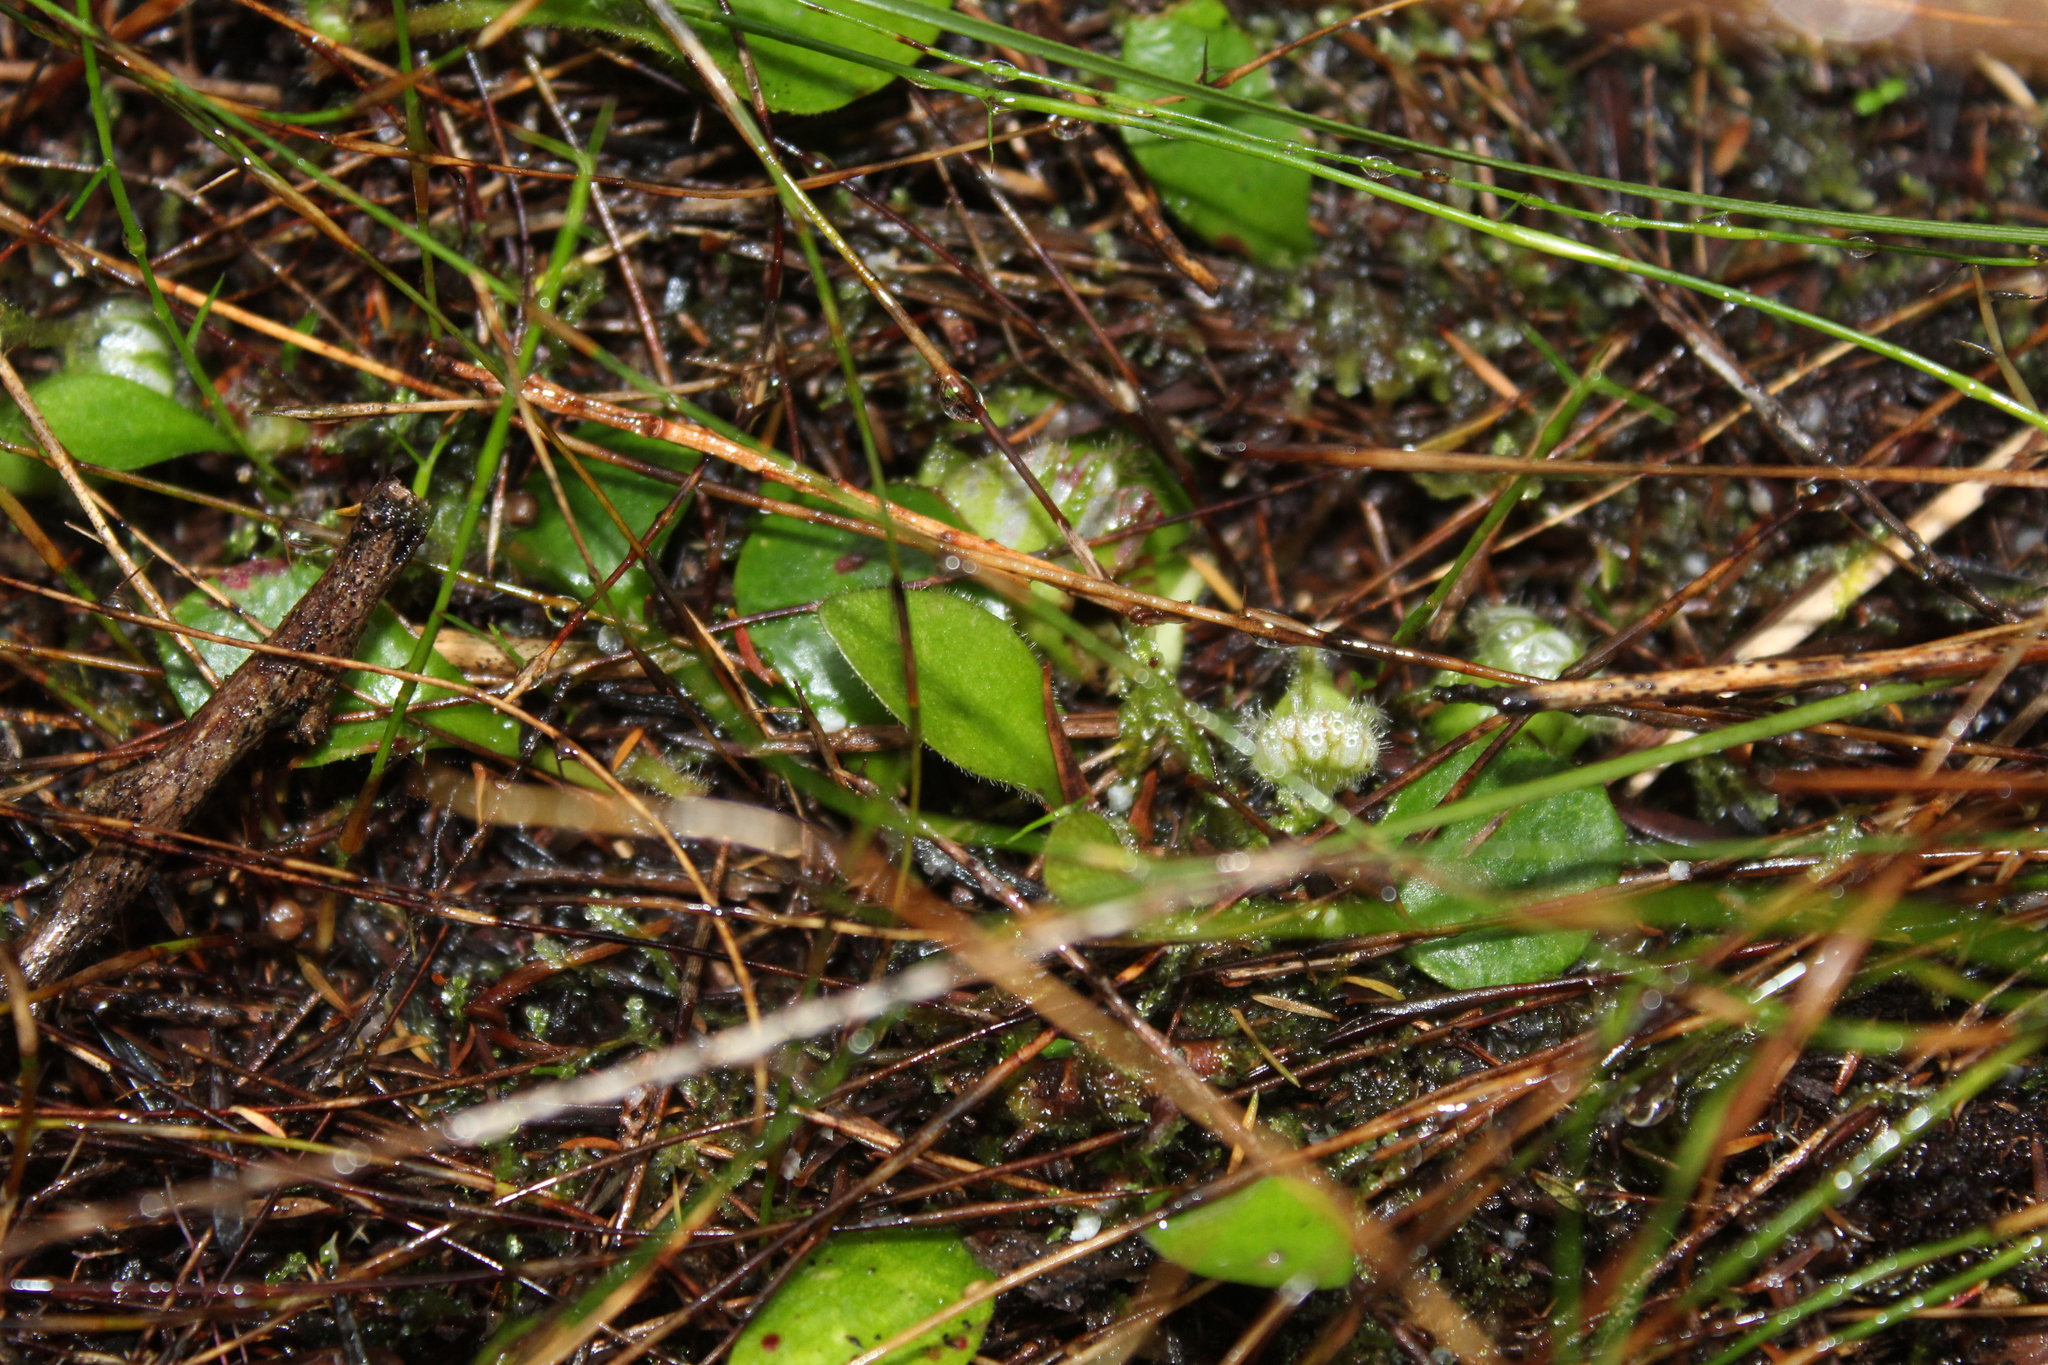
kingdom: Plantae
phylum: Tracheophyta
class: Magnoliopsida
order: Oxalidales
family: Cephalotaceae
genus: Cephalotus
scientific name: Cephalotus follicularis
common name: Australian pitcher plant
